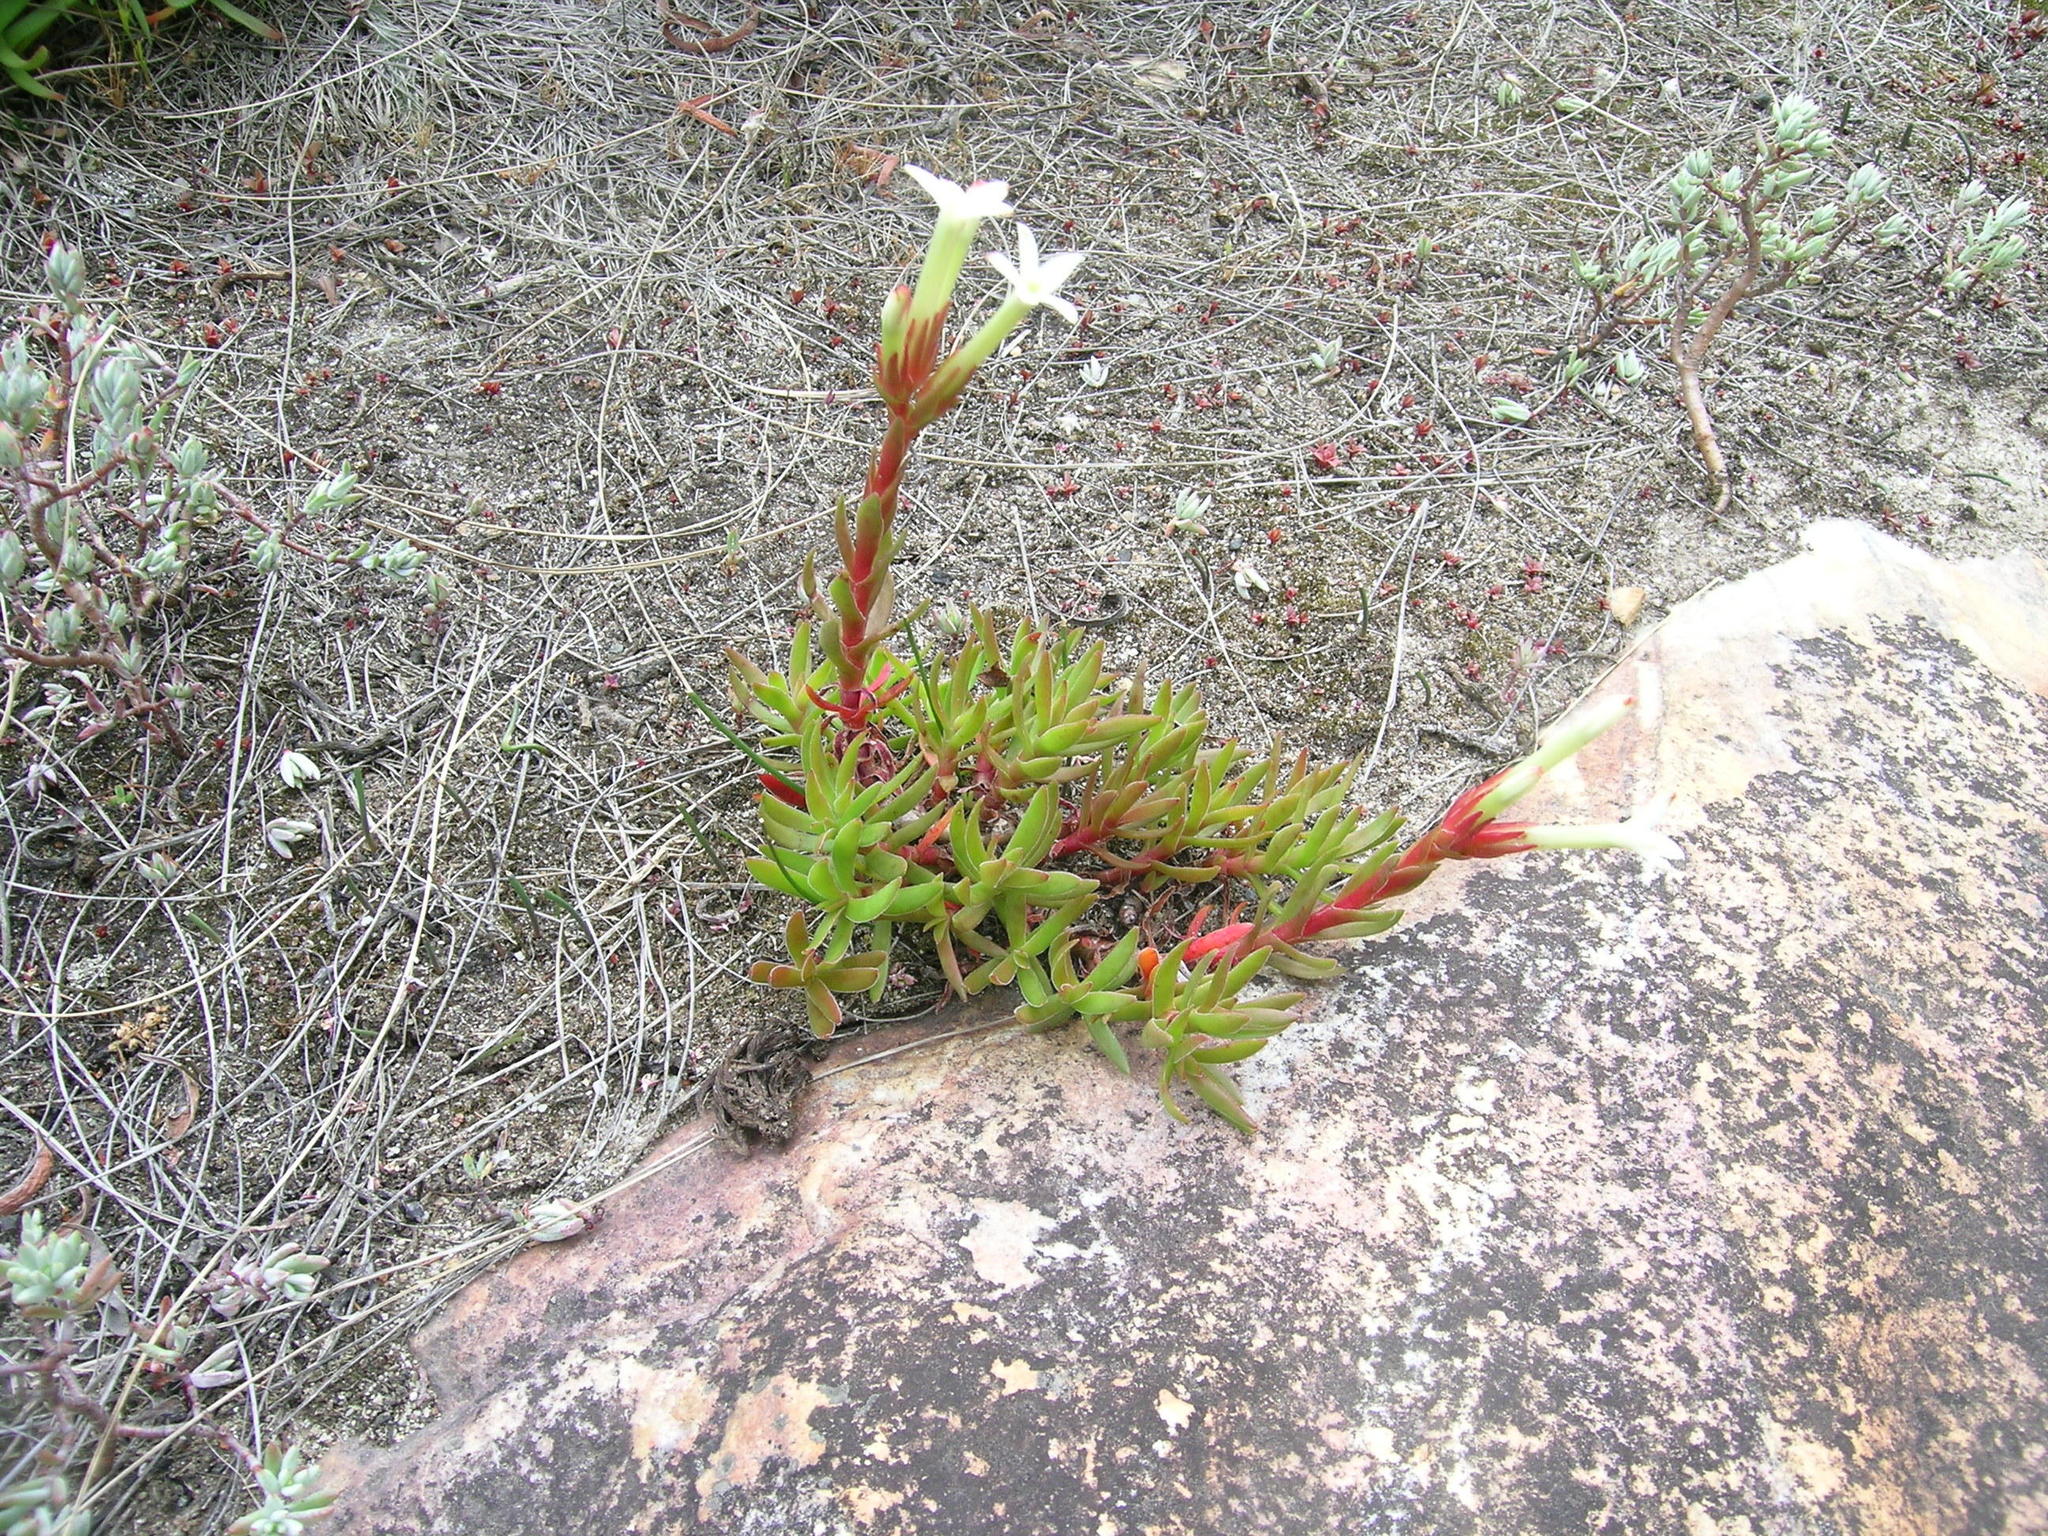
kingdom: Plantae
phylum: Tracheophyta
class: Magnoliopsida
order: Saxifragales
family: Crassulaceae
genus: Crassula
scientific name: Crassula obtusa
